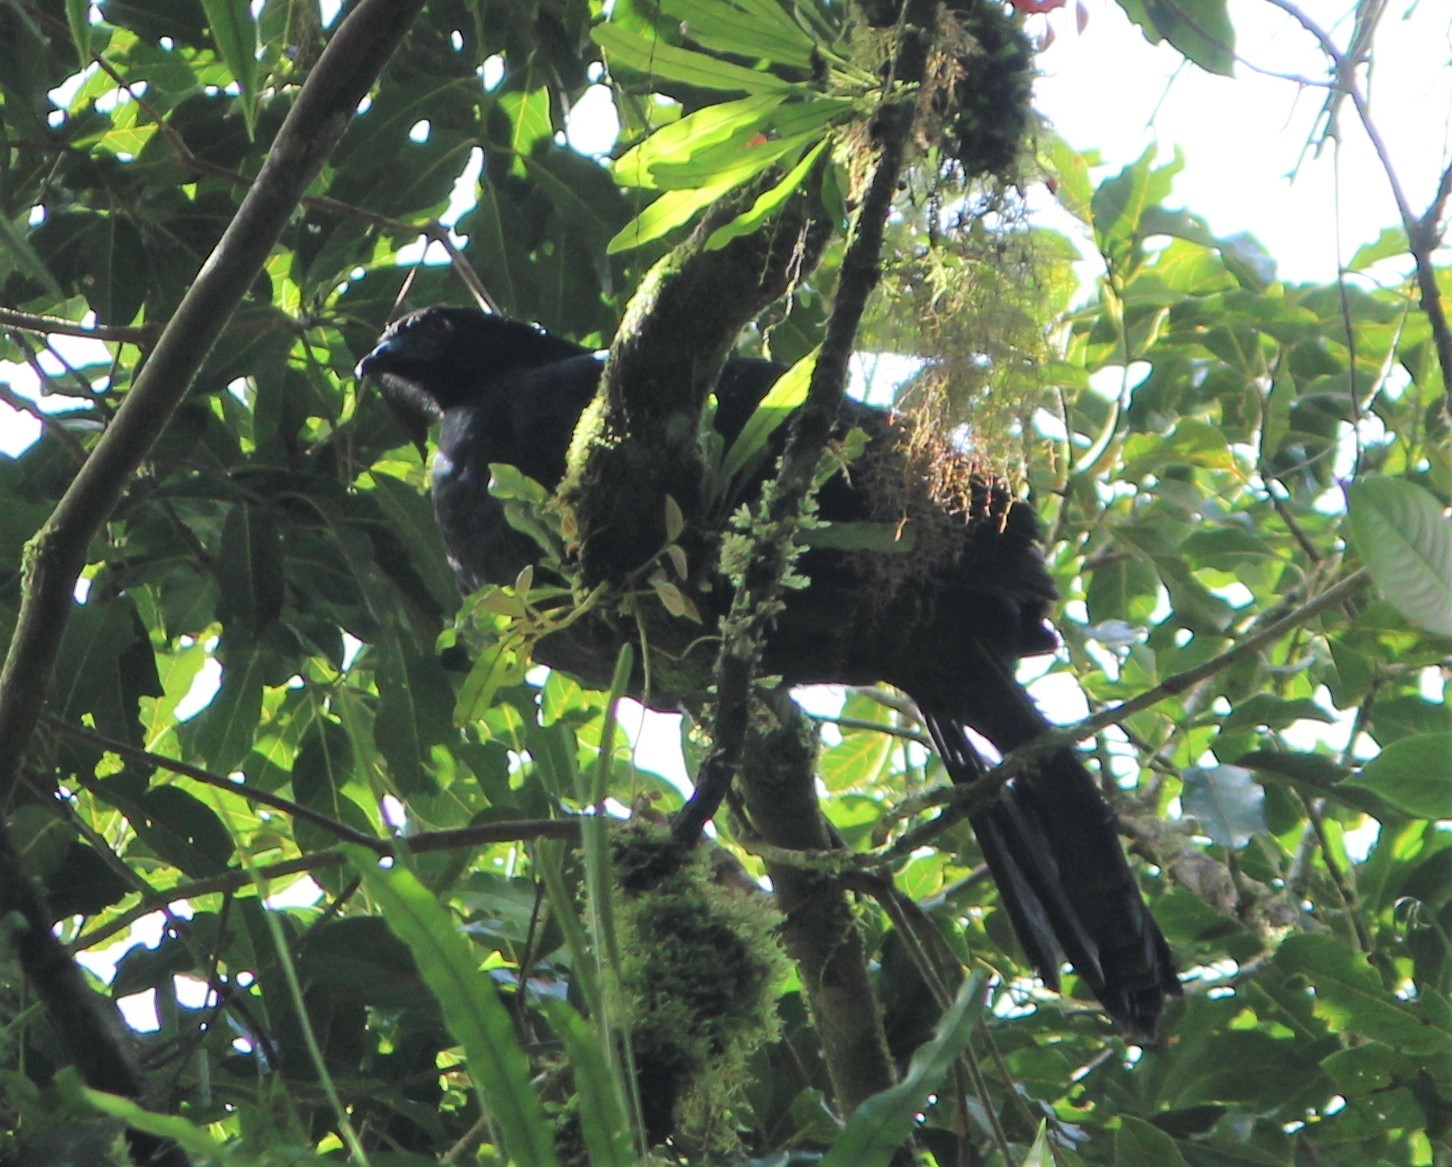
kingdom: Animalia
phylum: Chordata
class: Aves
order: Galliformes
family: Cracidae
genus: Chamaepetes
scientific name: Chamaepetes unicolor
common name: Black guan
